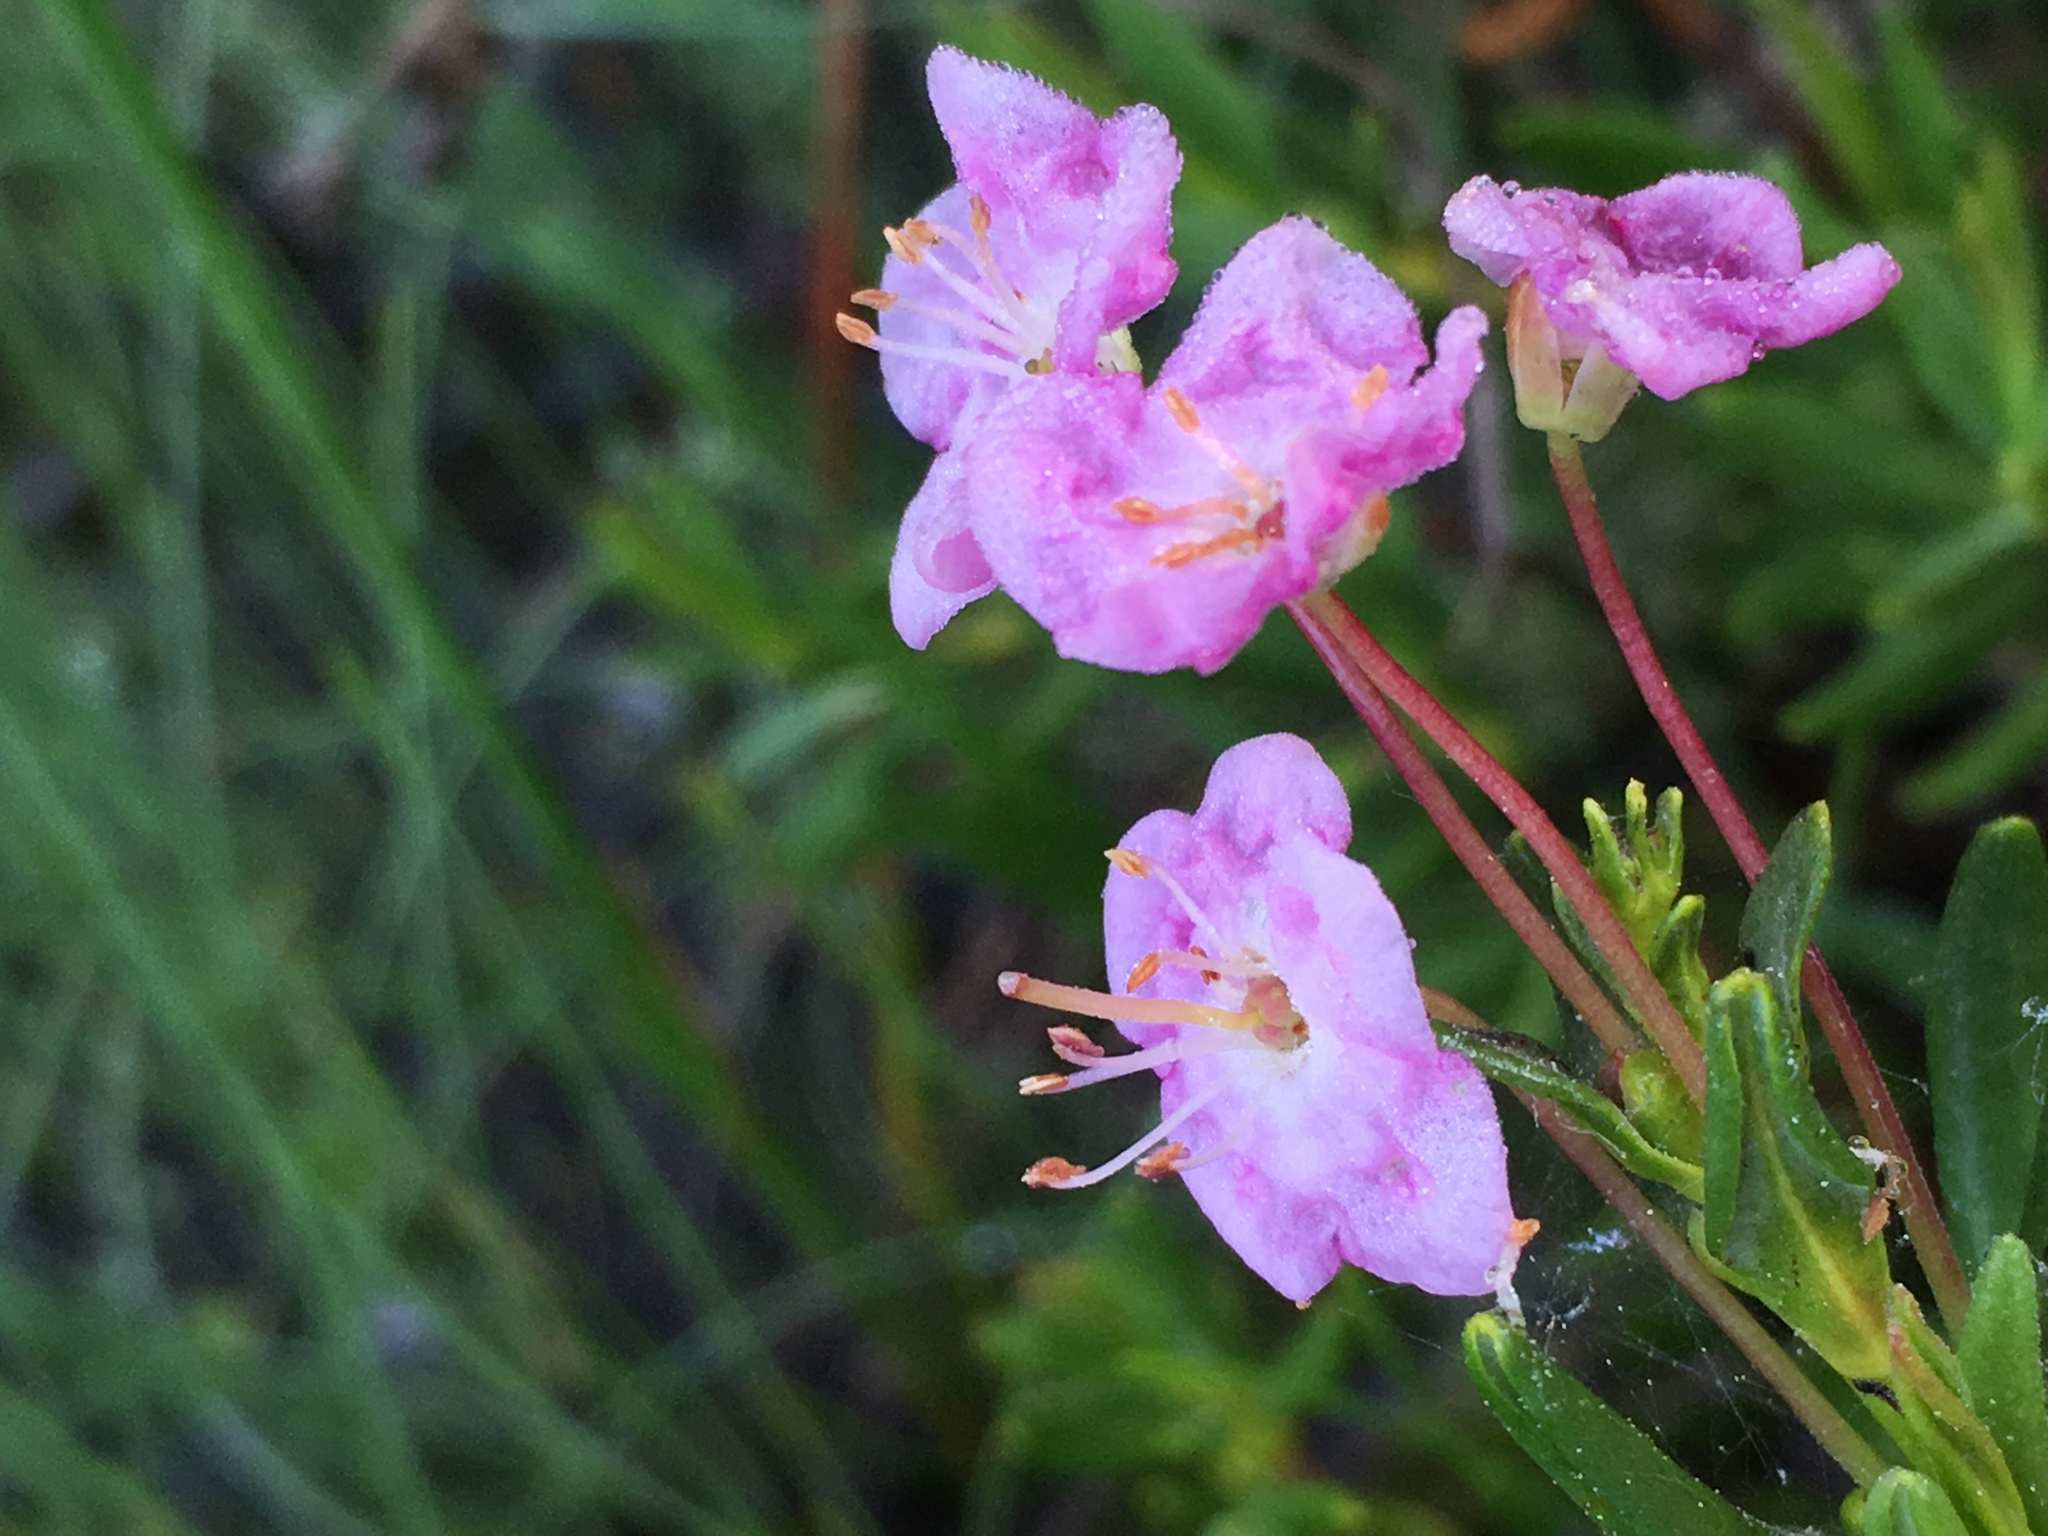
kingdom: Plantae
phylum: Tracheophyta
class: Magnoliopsida
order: Ericales
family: Ericaceae
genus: Kalmia
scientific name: Kalmia microphylla
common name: Alpine bog laurel
